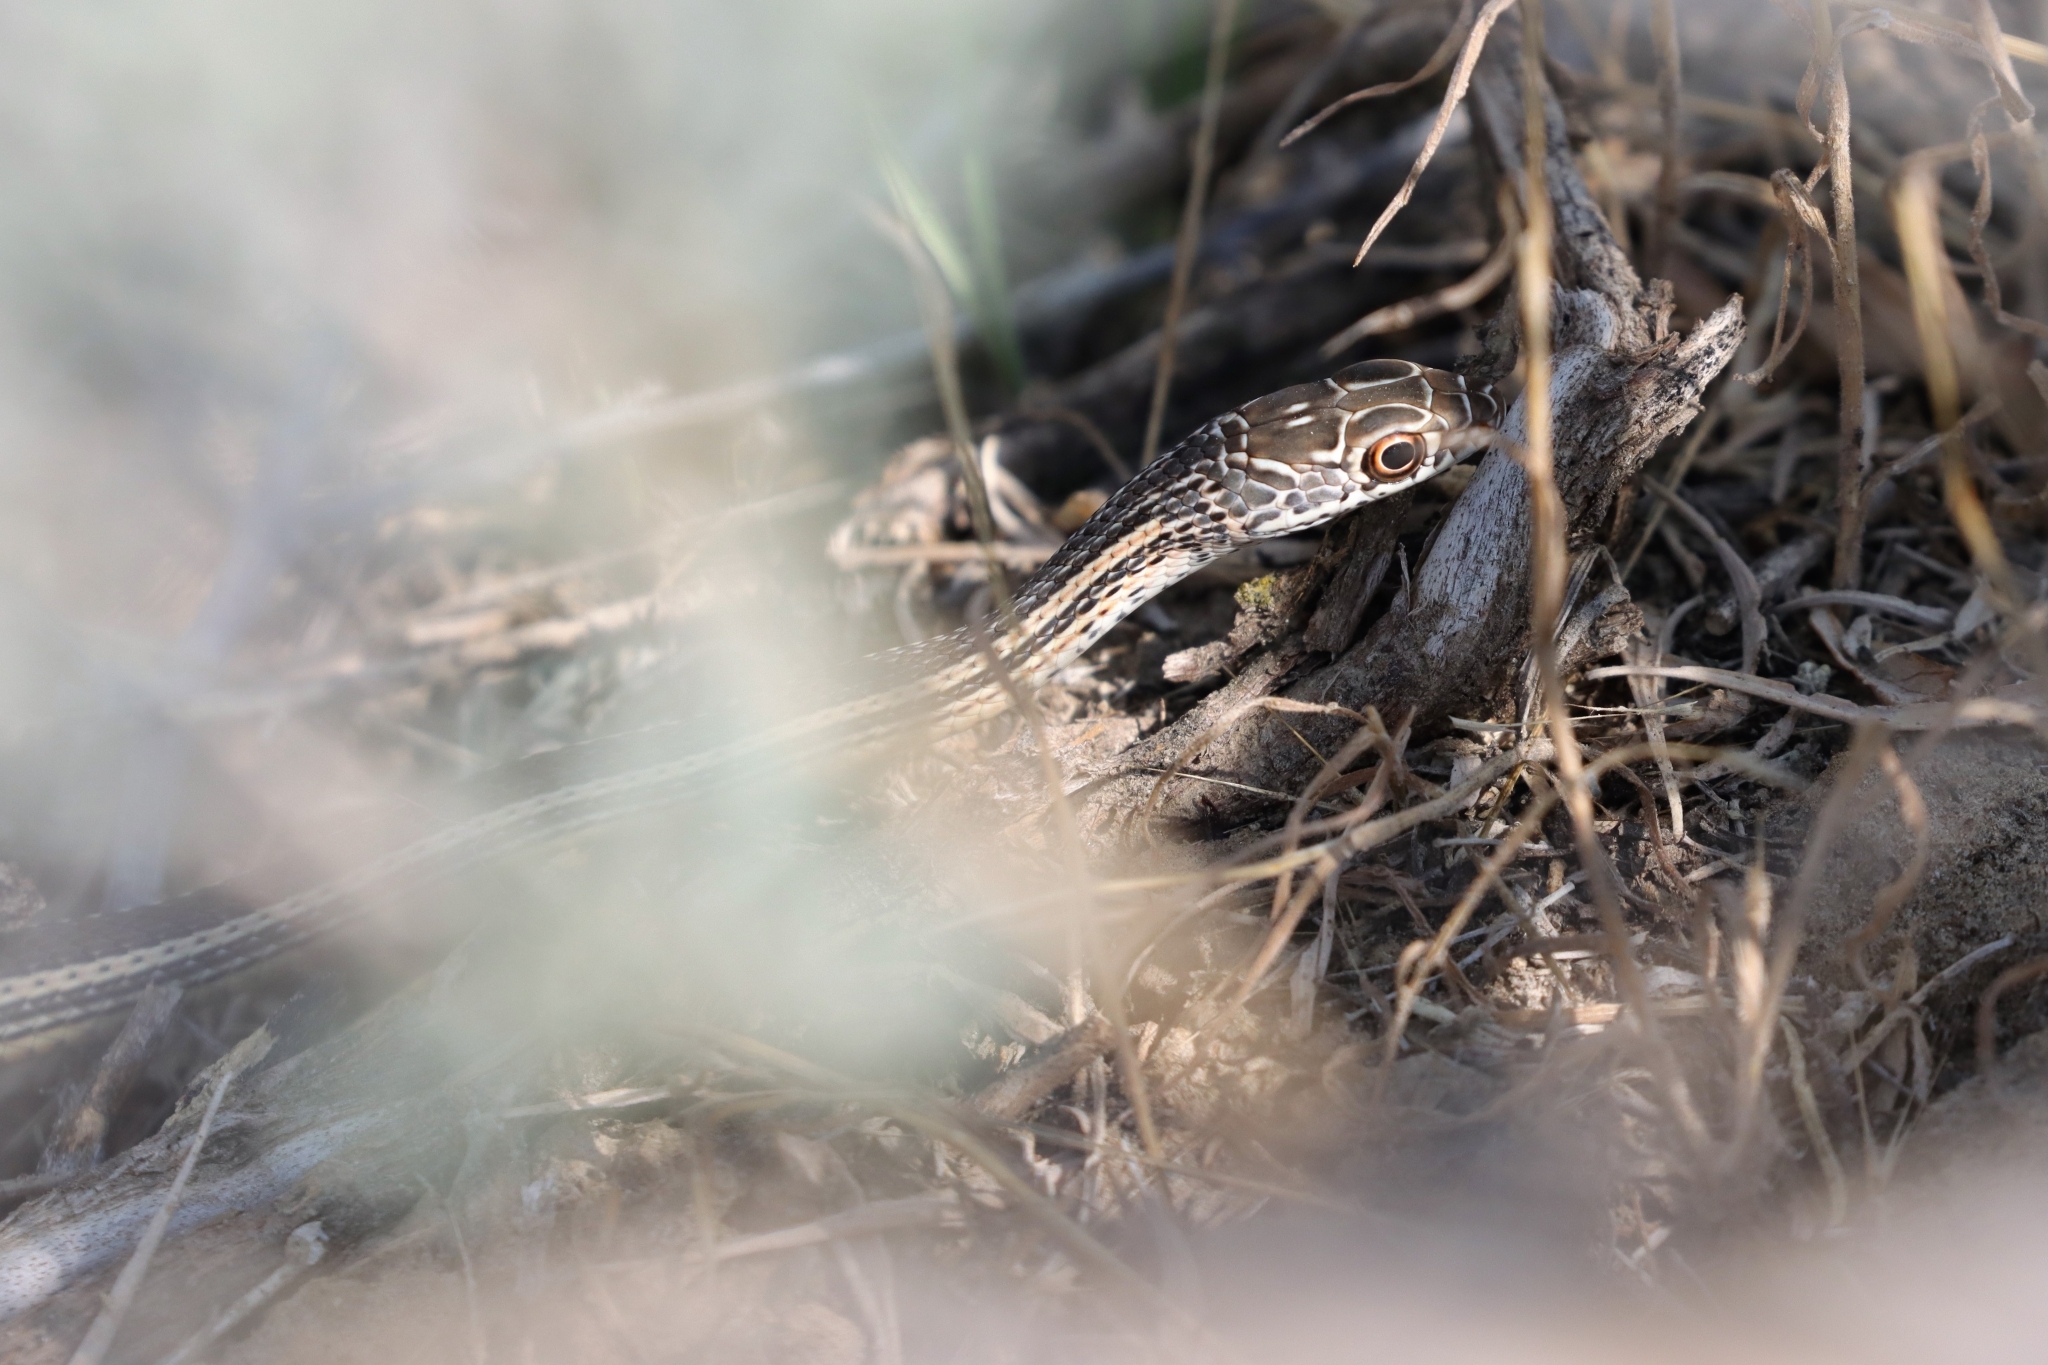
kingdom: Animalia
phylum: Chordata
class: Squamata
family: Colubridae
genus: Masticophis
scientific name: Masticophis taeniatus
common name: Striped whipsnake
